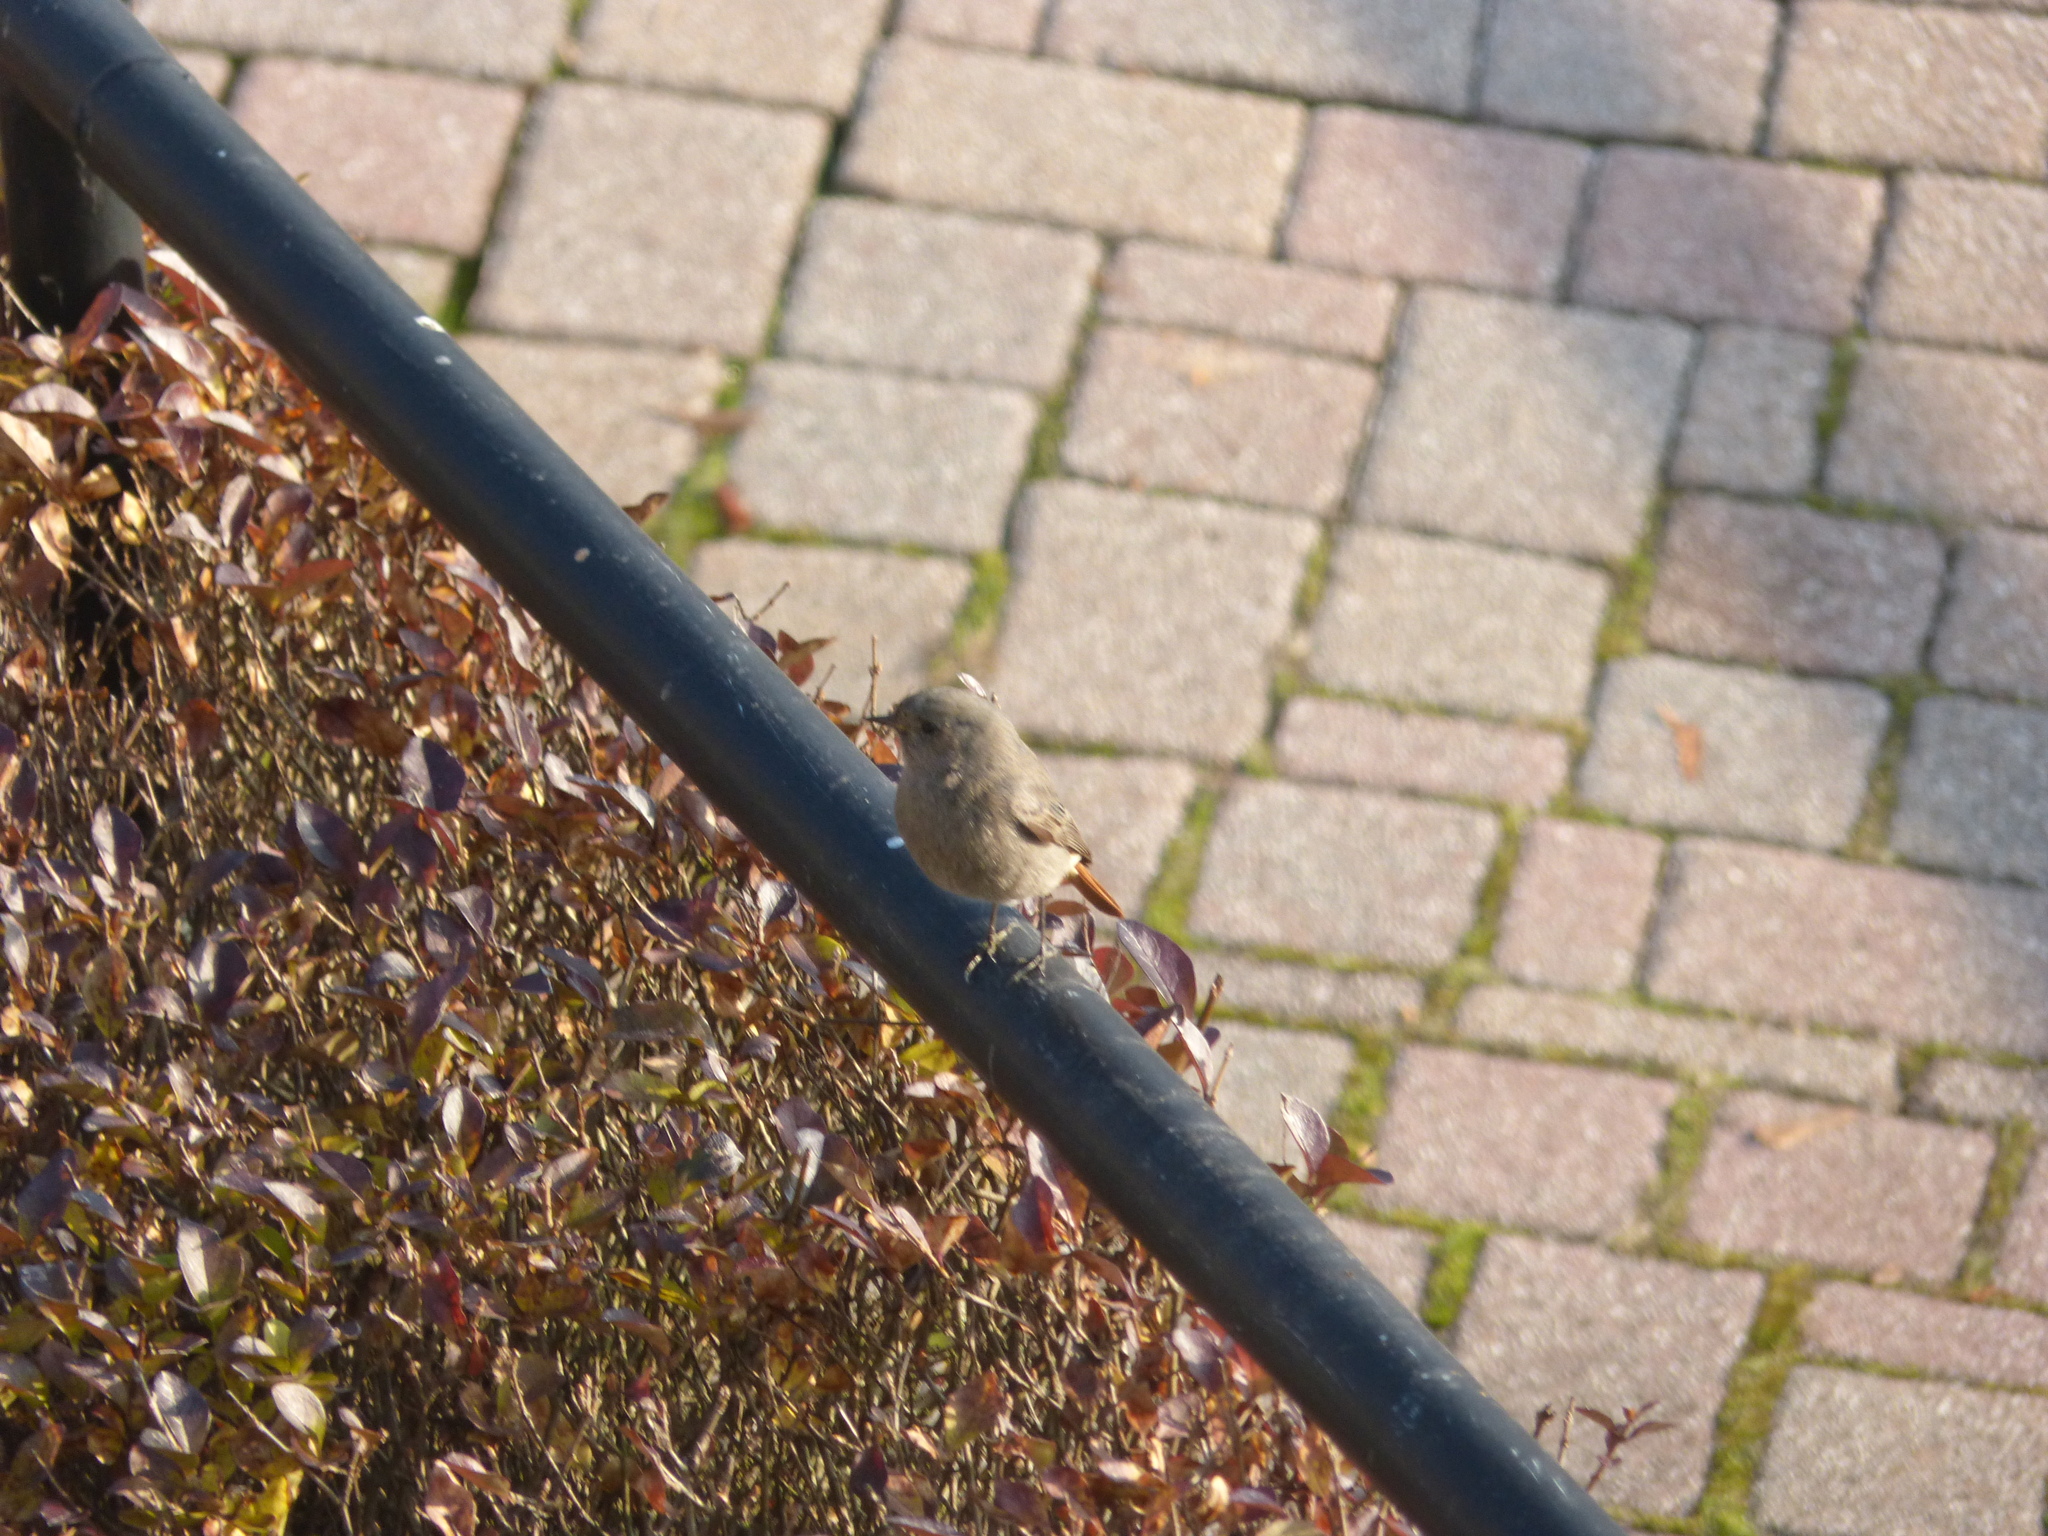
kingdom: Animalia
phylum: Chordata
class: Aves
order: Passeriformes
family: Muscicapidae
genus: Phoenicurus
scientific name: Phoenicurus ochruros
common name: Black redstart
